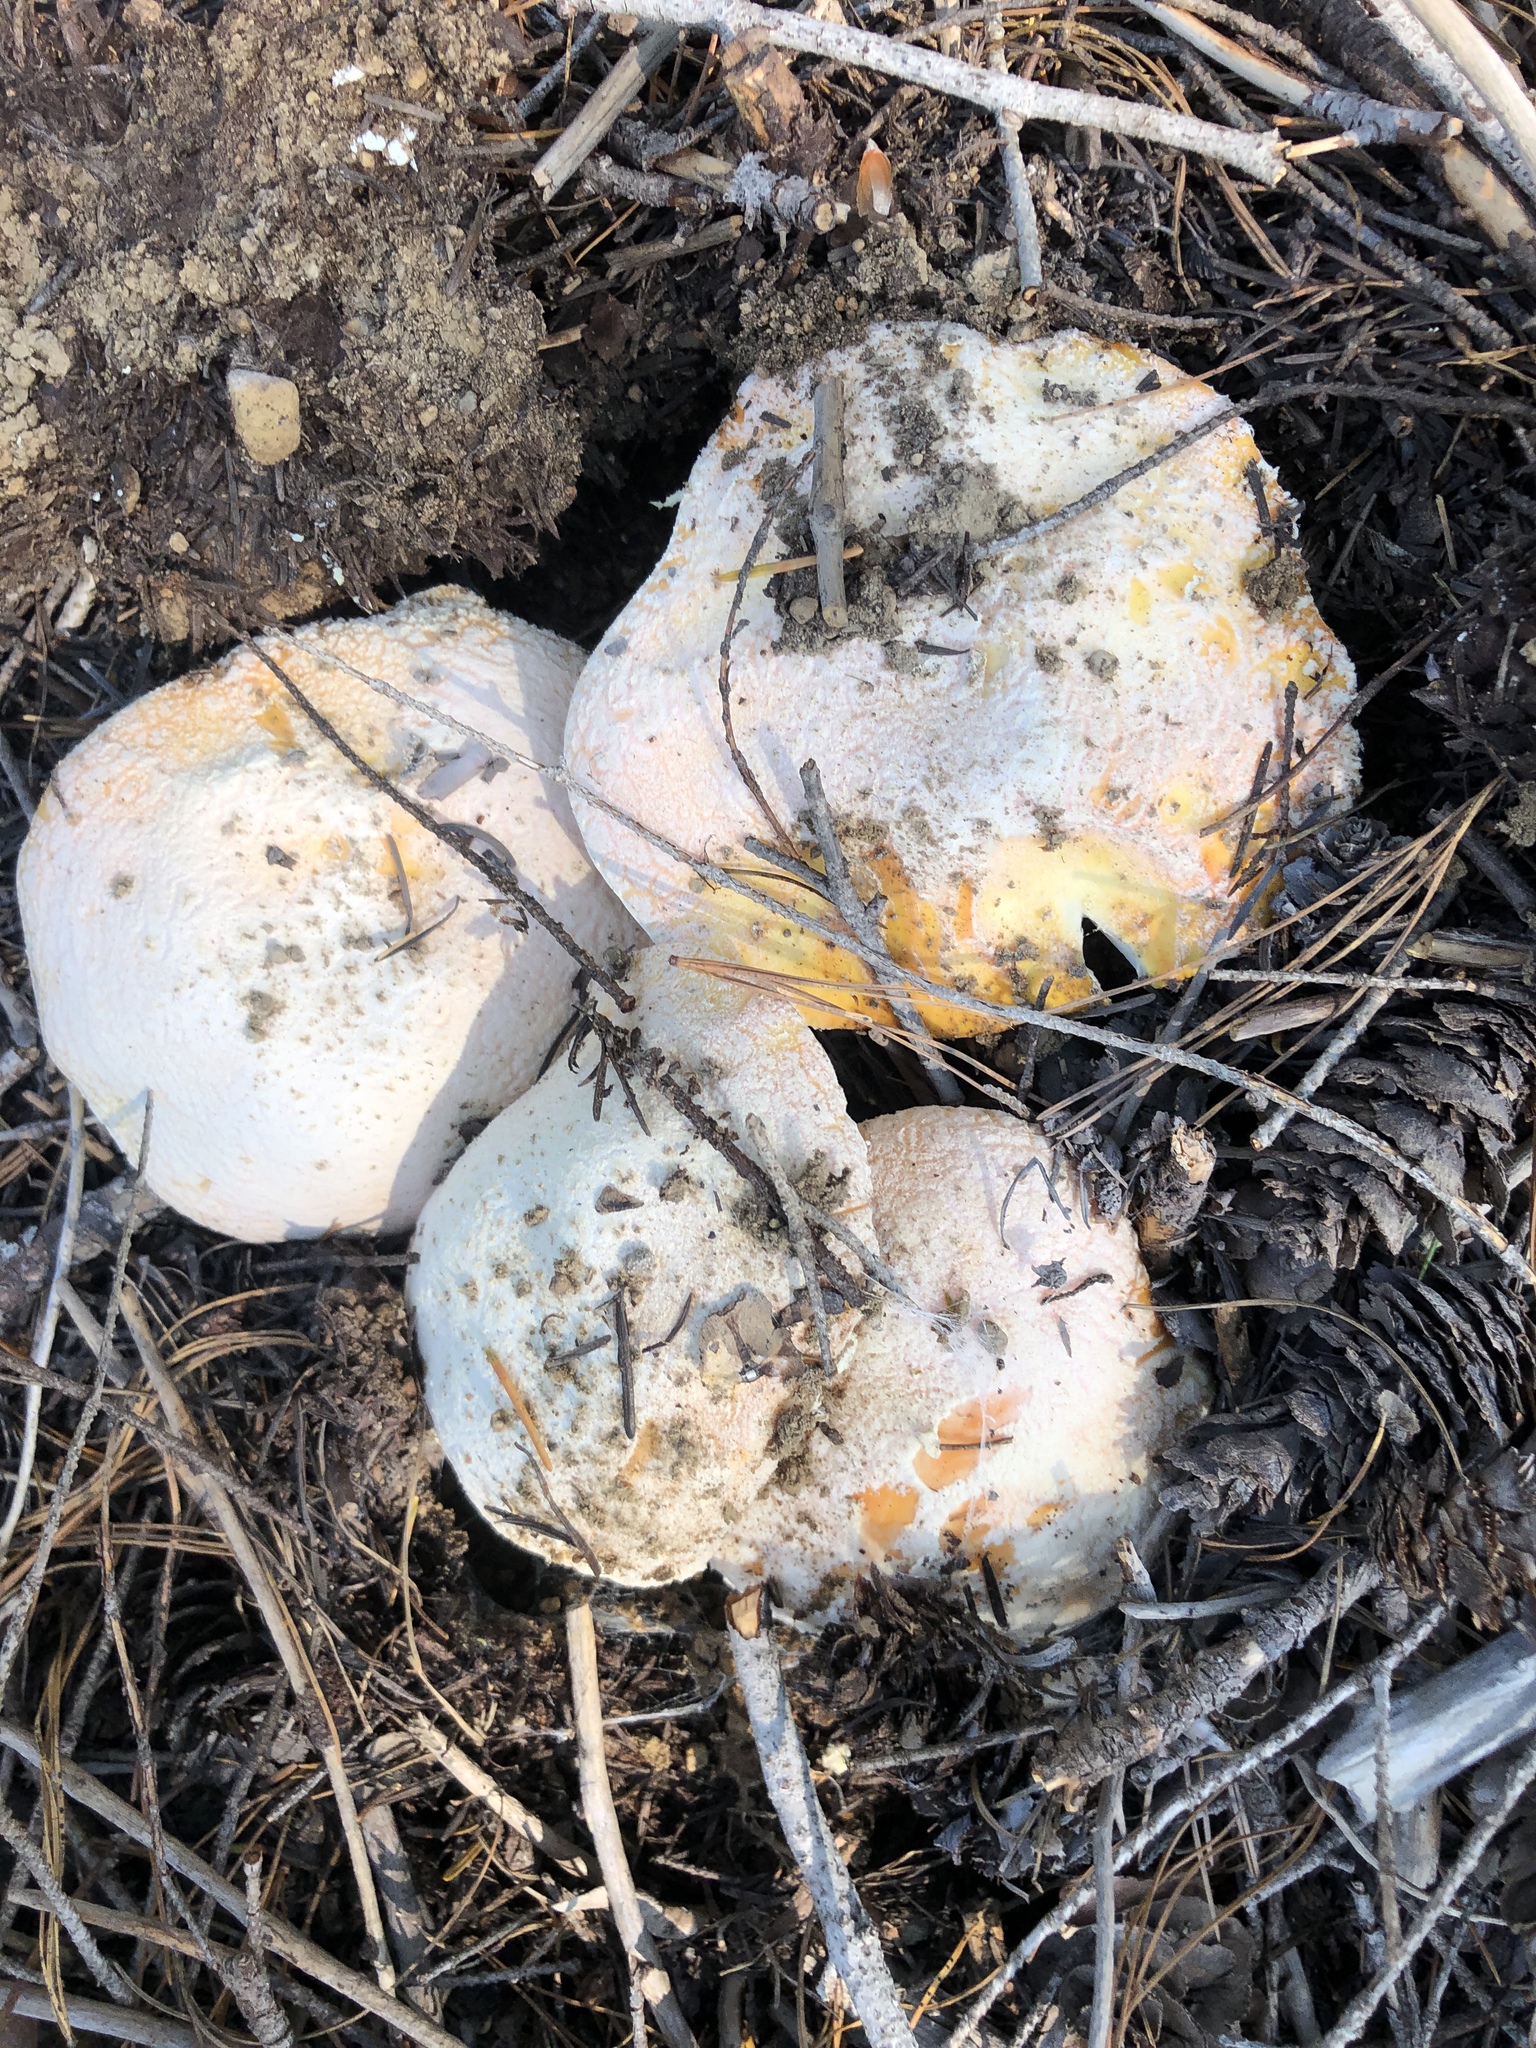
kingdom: Fungi
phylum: Basidiomycota
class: Agaricomycetes
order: Agaricales
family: Amanitaceae
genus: Amanita
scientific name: Amanita aprica
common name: Sunshine amanita
